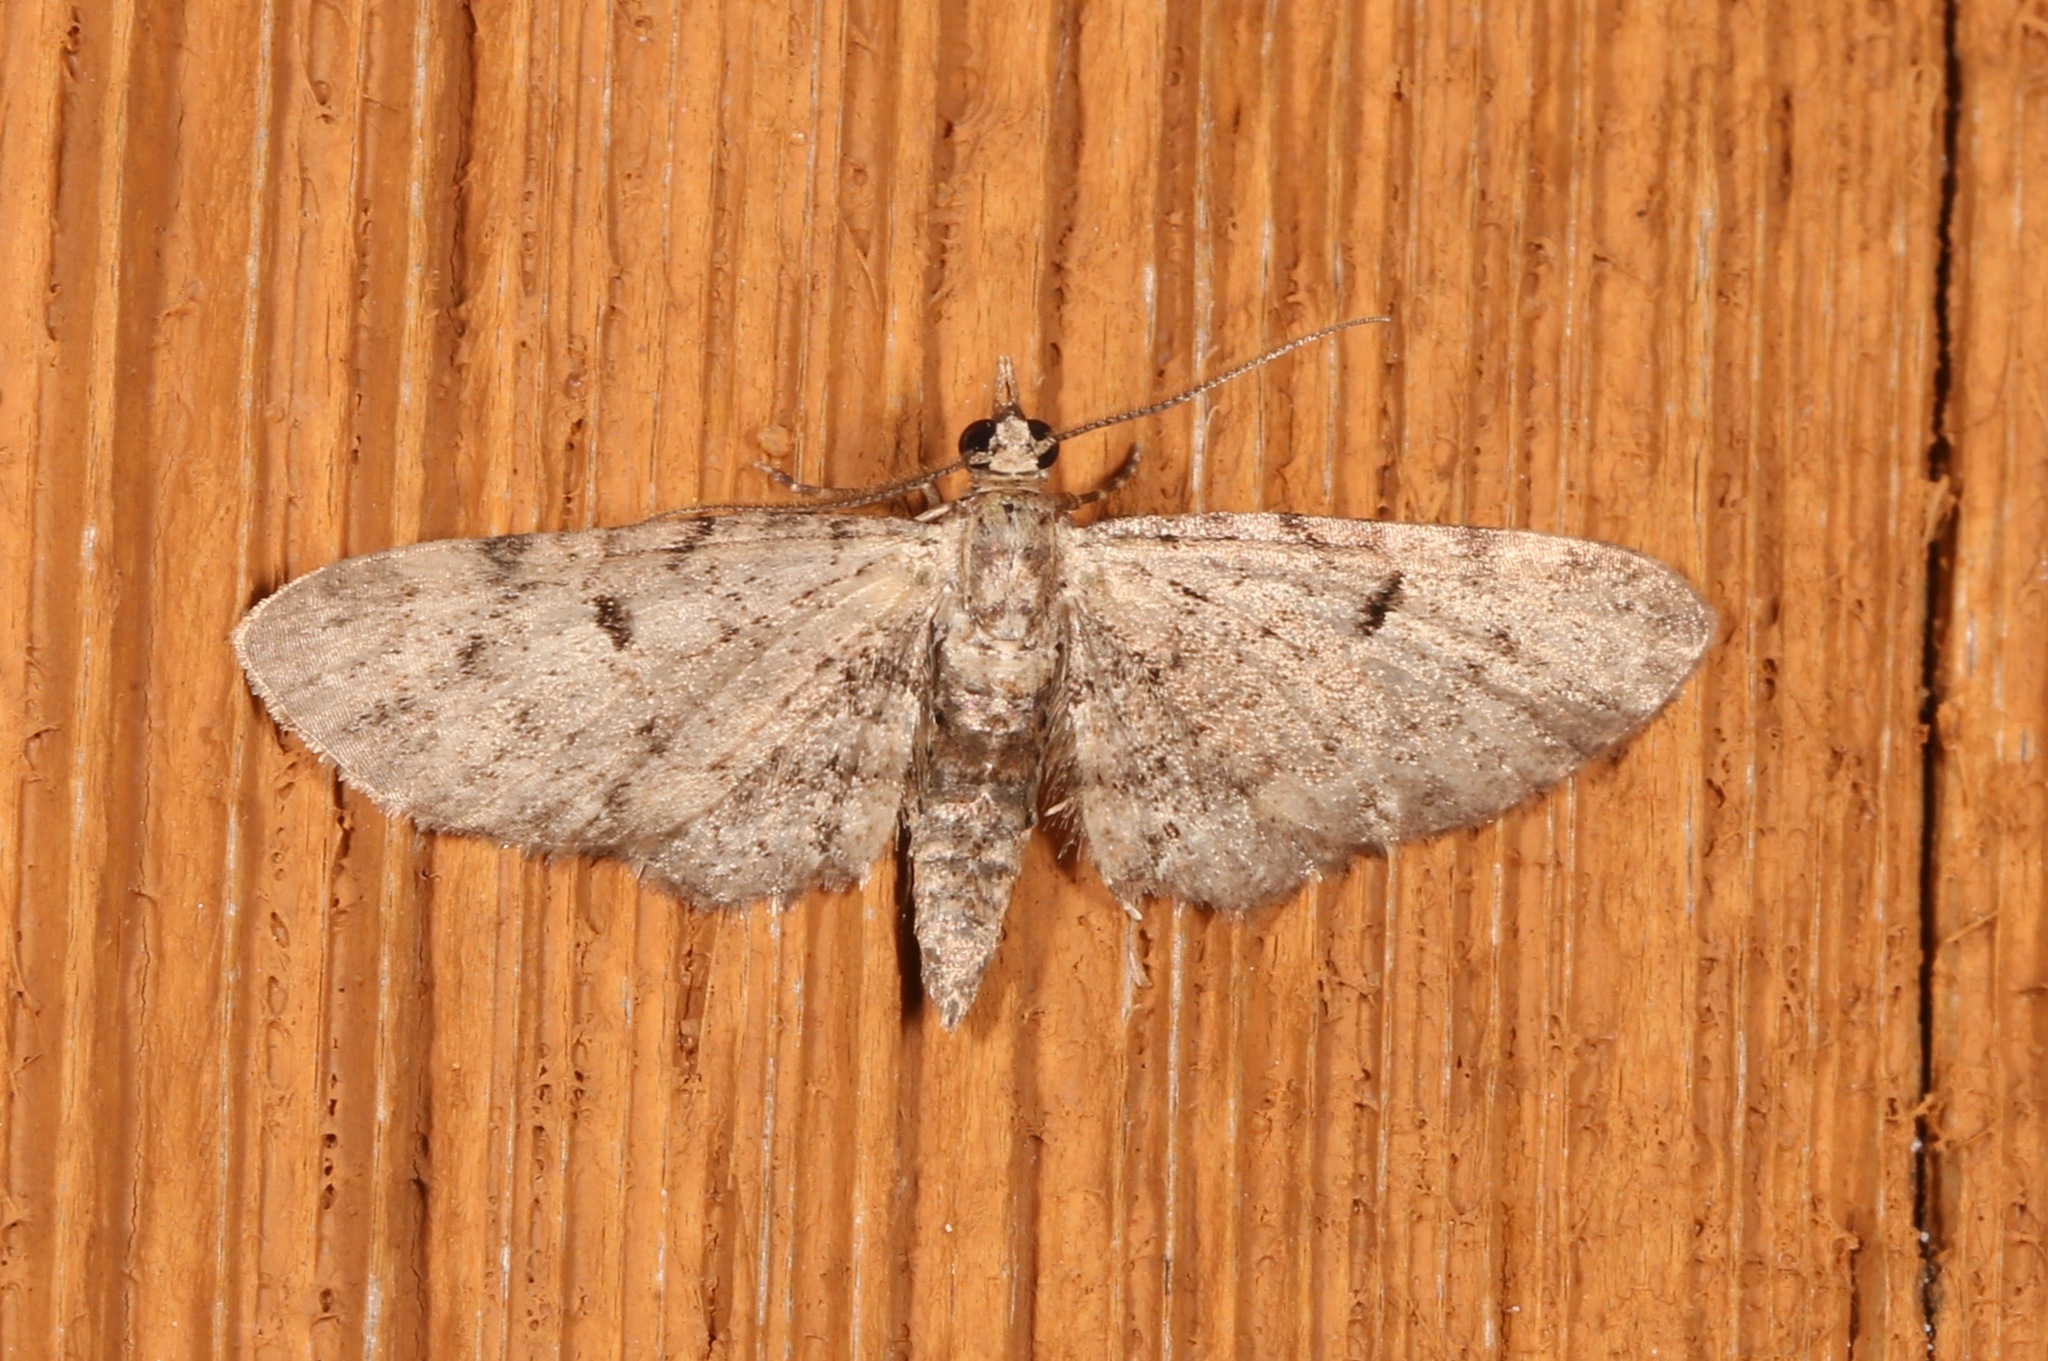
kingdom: Animalia
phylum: Arthropoda
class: Insecta
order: Lepidoptera
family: Geometridae
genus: Eupithecia
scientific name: Eupithecia miserulata
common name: Common eupithecia
